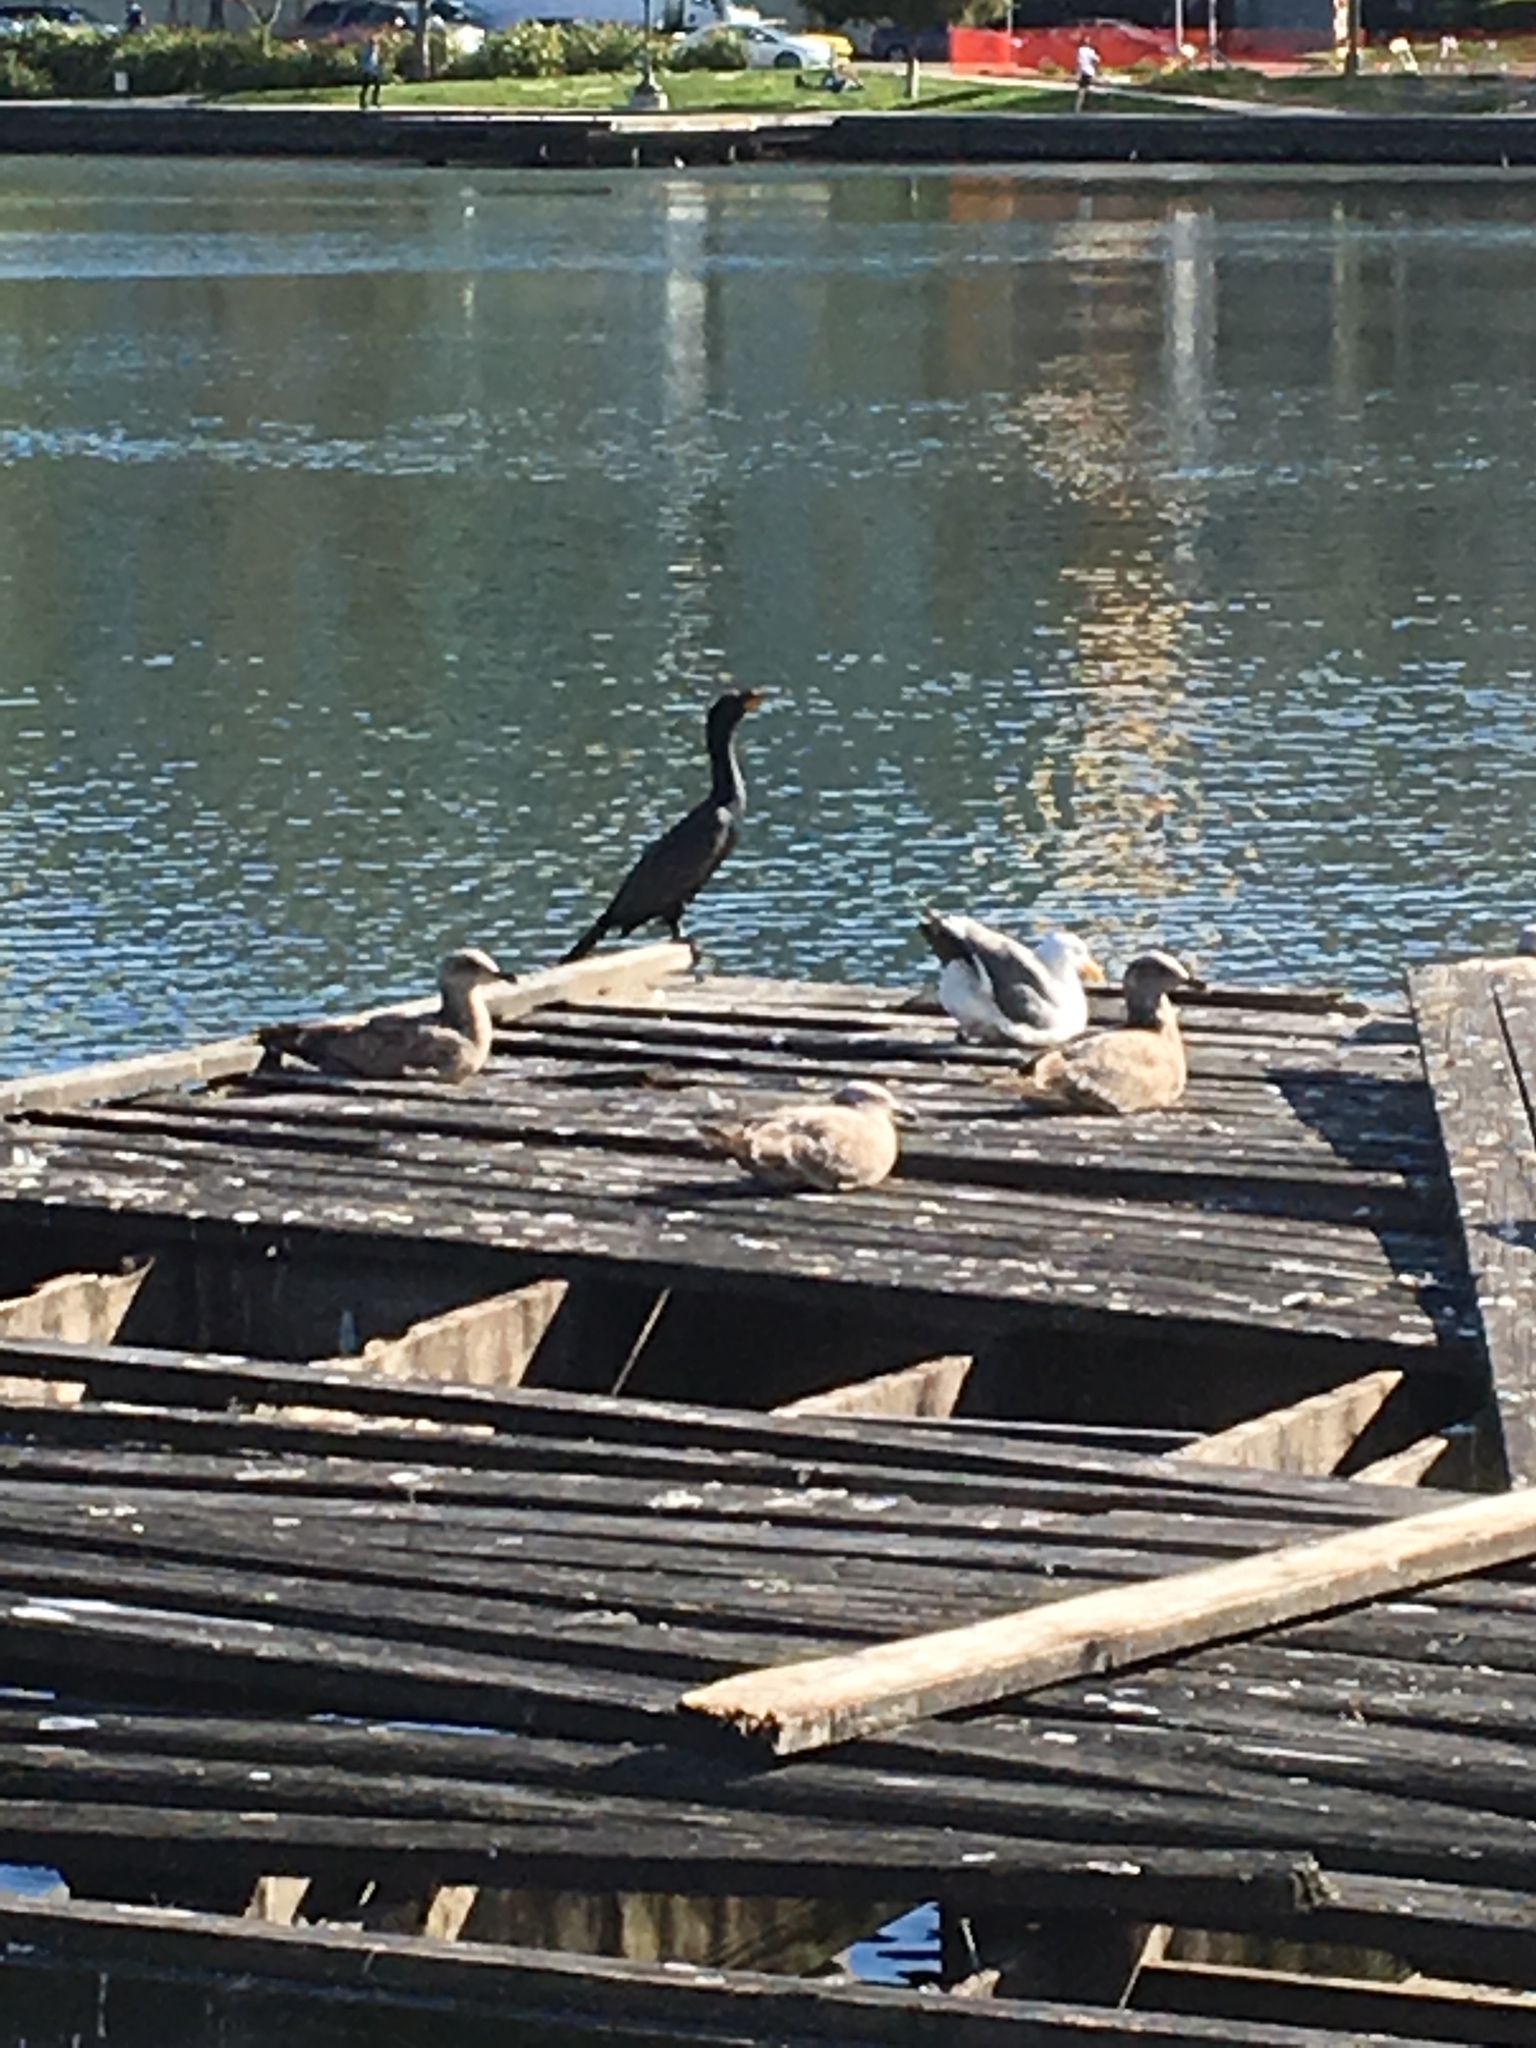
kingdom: Animalia
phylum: Chordata
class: Aves
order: Suliformes
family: Phalacrocoracidae
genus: Phalacrocorax
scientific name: Phalacrocorax auritus
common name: Double-crested cormorant
